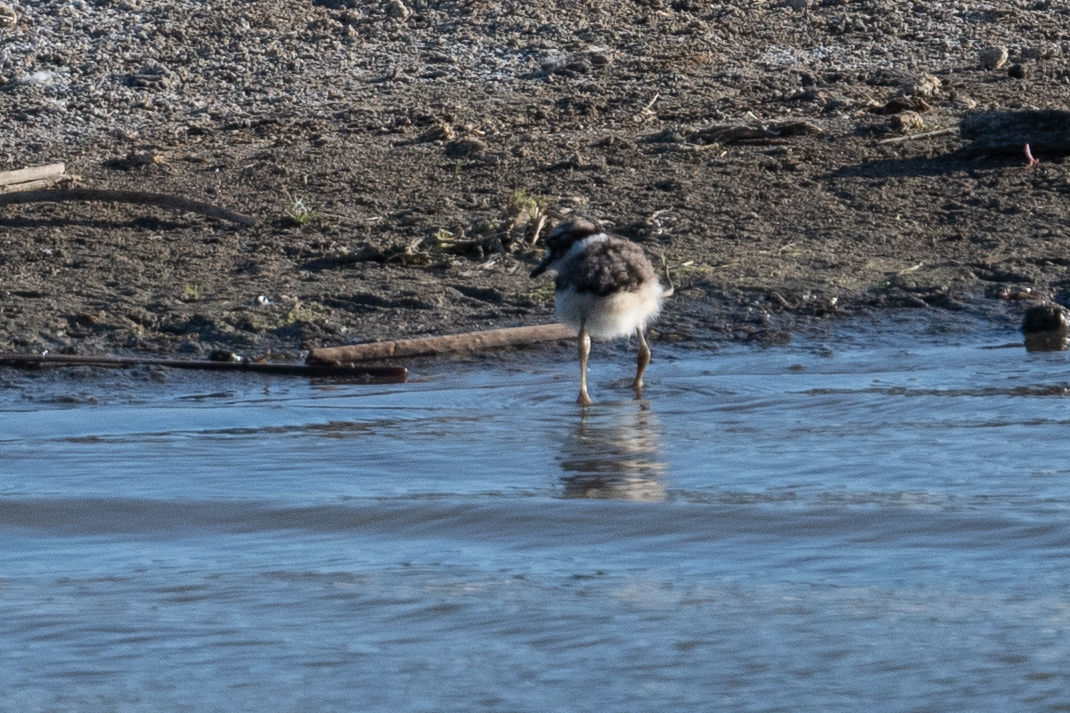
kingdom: Animalia
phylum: Chordata
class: Aves
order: Charadriiformes
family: Charadriidae
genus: Charadrius
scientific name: Charadrius vociferus
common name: Killdeer
